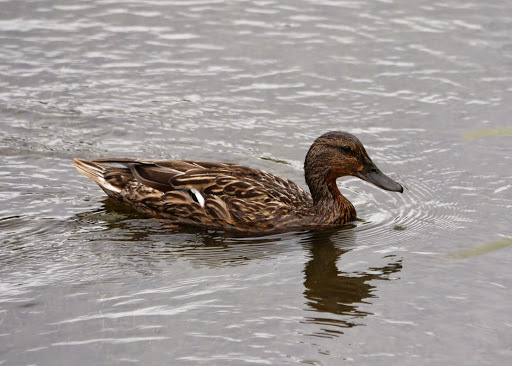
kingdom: Animalia
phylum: Chordata
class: Aves
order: Anseriformes
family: Anatidae
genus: Anas
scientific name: Anas platyrhynchos
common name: Mallard
